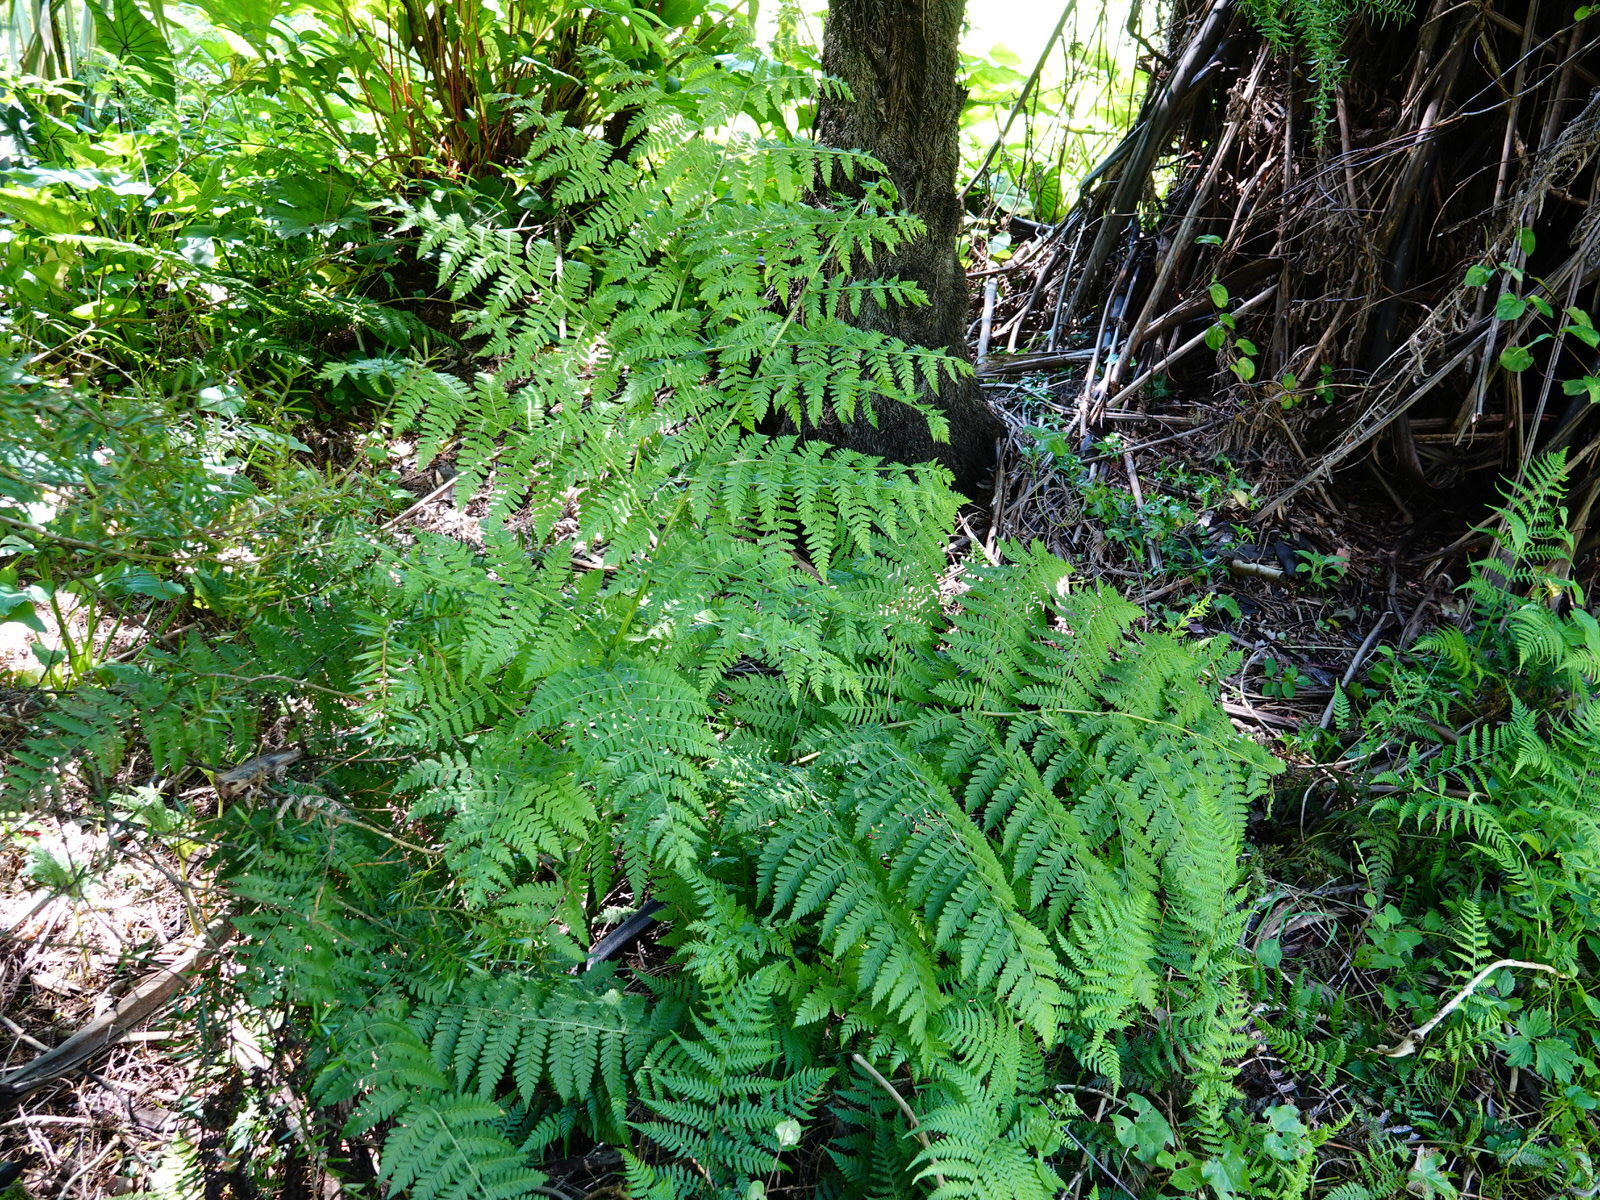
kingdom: Plantae
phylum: Tracheophyta
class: Polypodiopsida
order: Polypodiales
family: Athyriaceae
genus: Diplazium
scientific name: Diplazium australe
